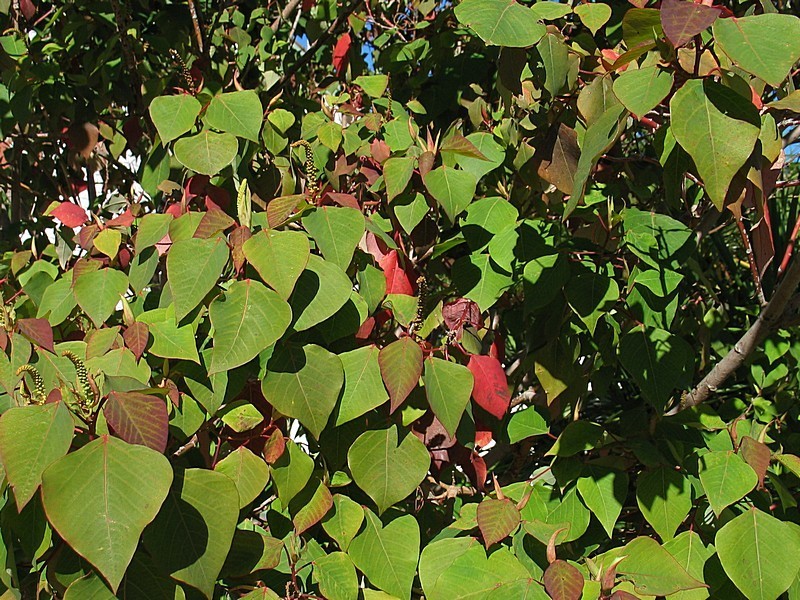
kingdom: Plantae
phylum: Tracheophyta
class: Magnoliopsida
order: Malpighiales
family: Euphorbiaceae
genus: Homalanthus
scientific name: Homalanthus populifolius
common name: Queensland poplar
